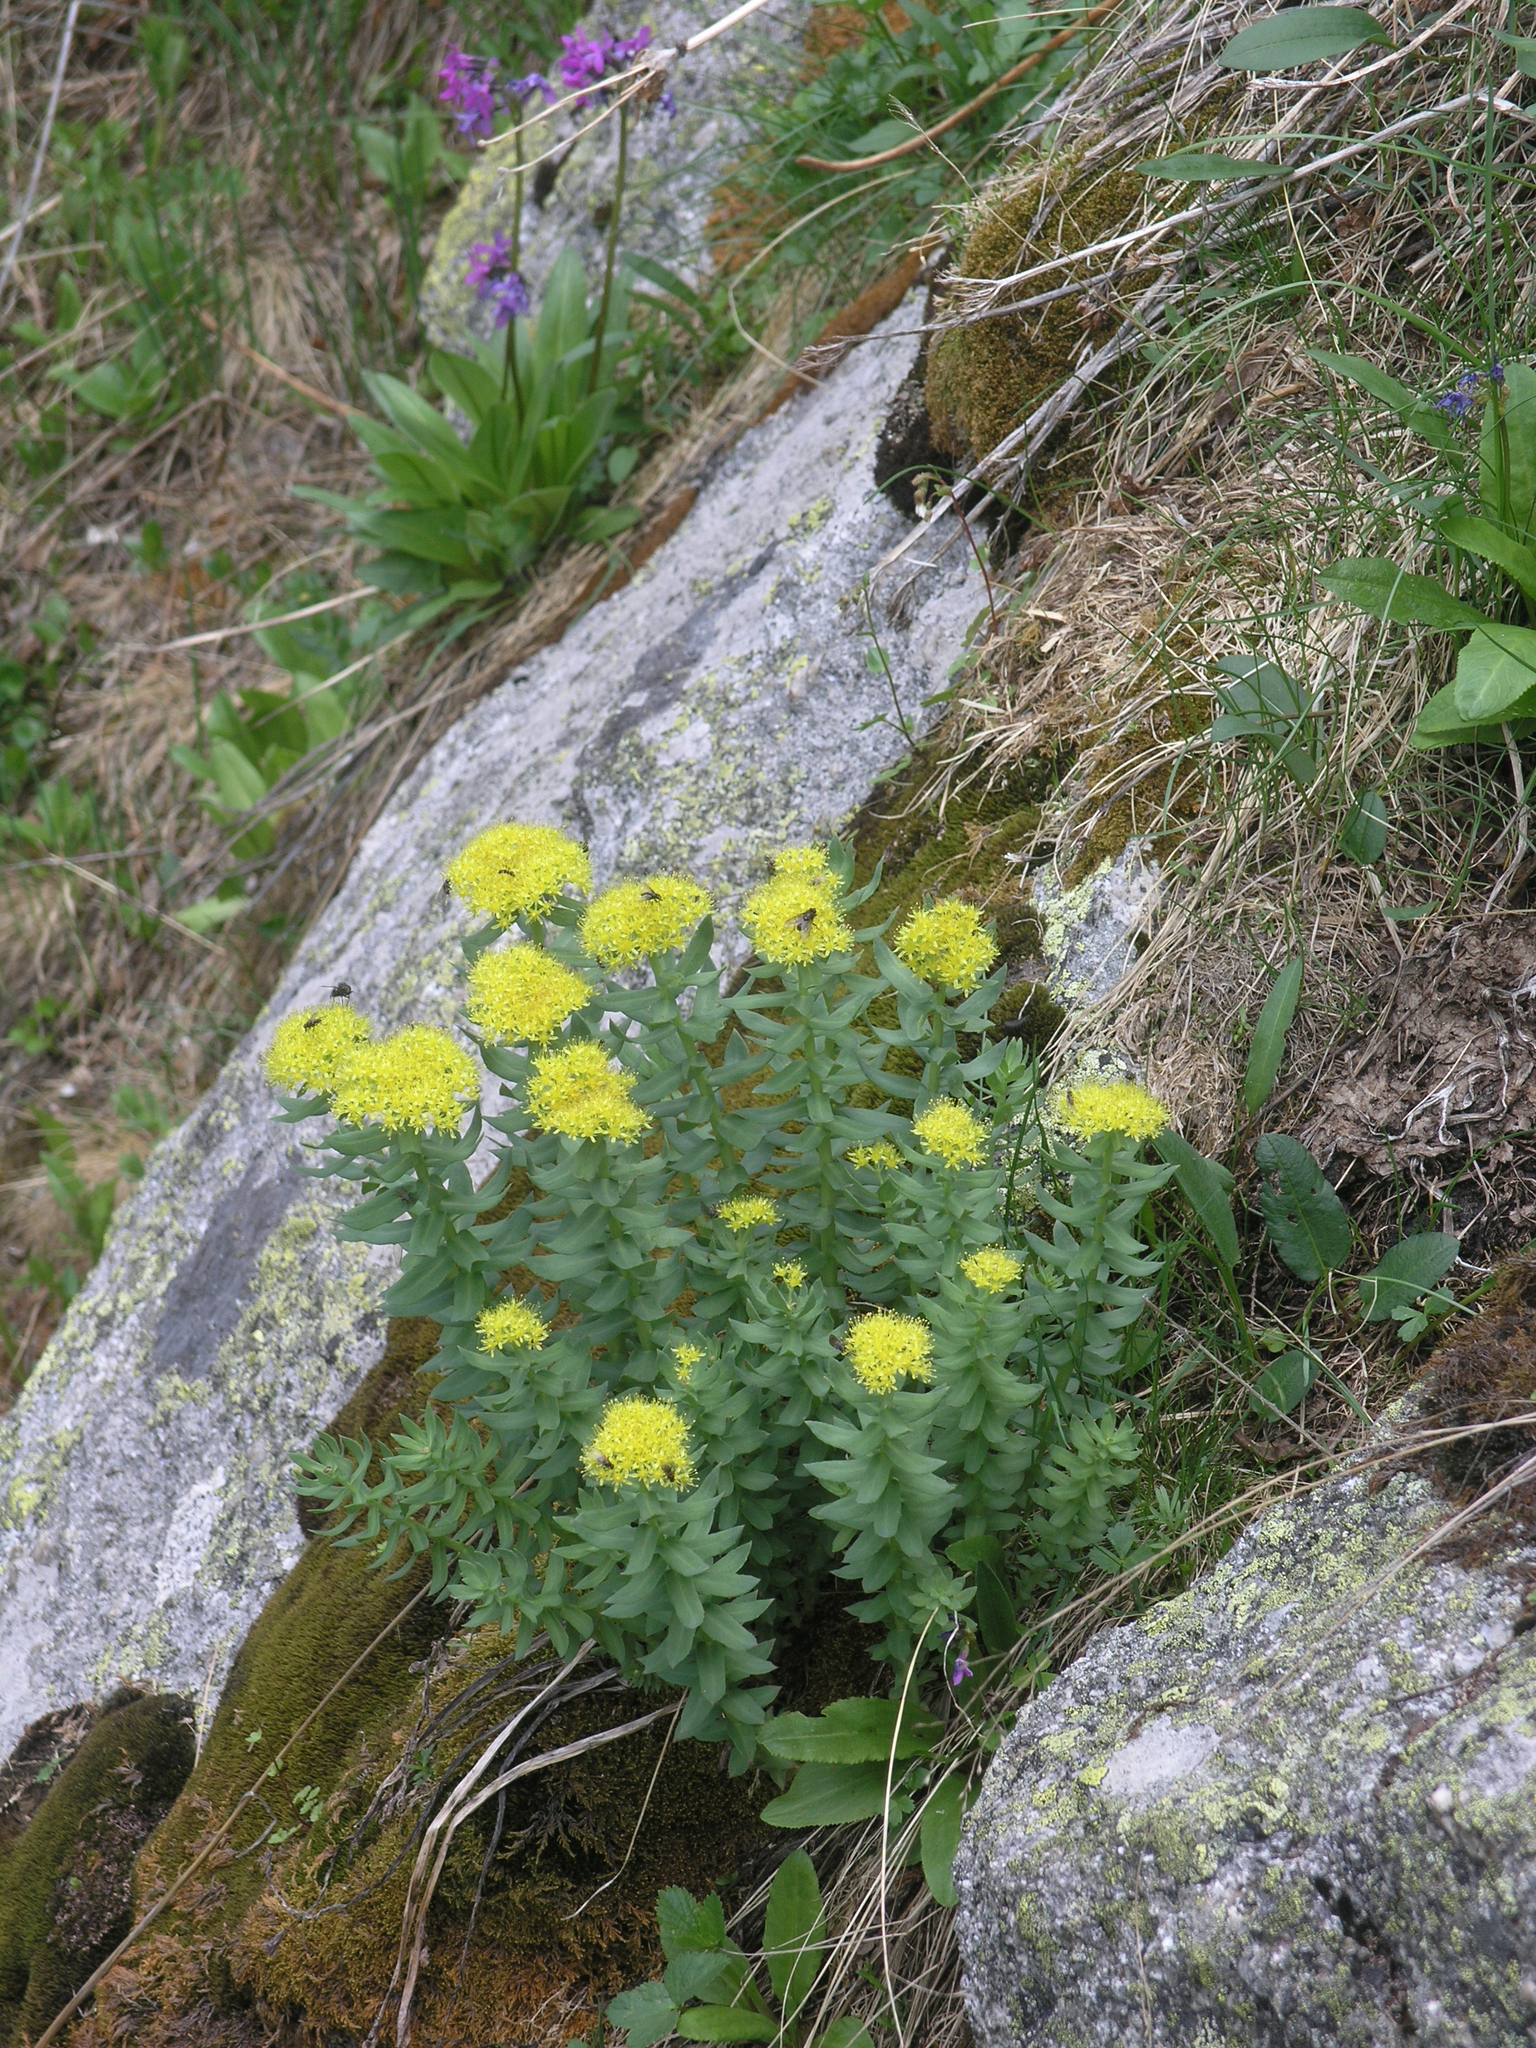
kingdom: Plantae
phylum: Tracheophyta
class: Magnoliopsida
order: Saxifragales
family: Crassulaceae
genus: Rhodiola
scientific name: Rhodiola rosea
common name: Roseroot
